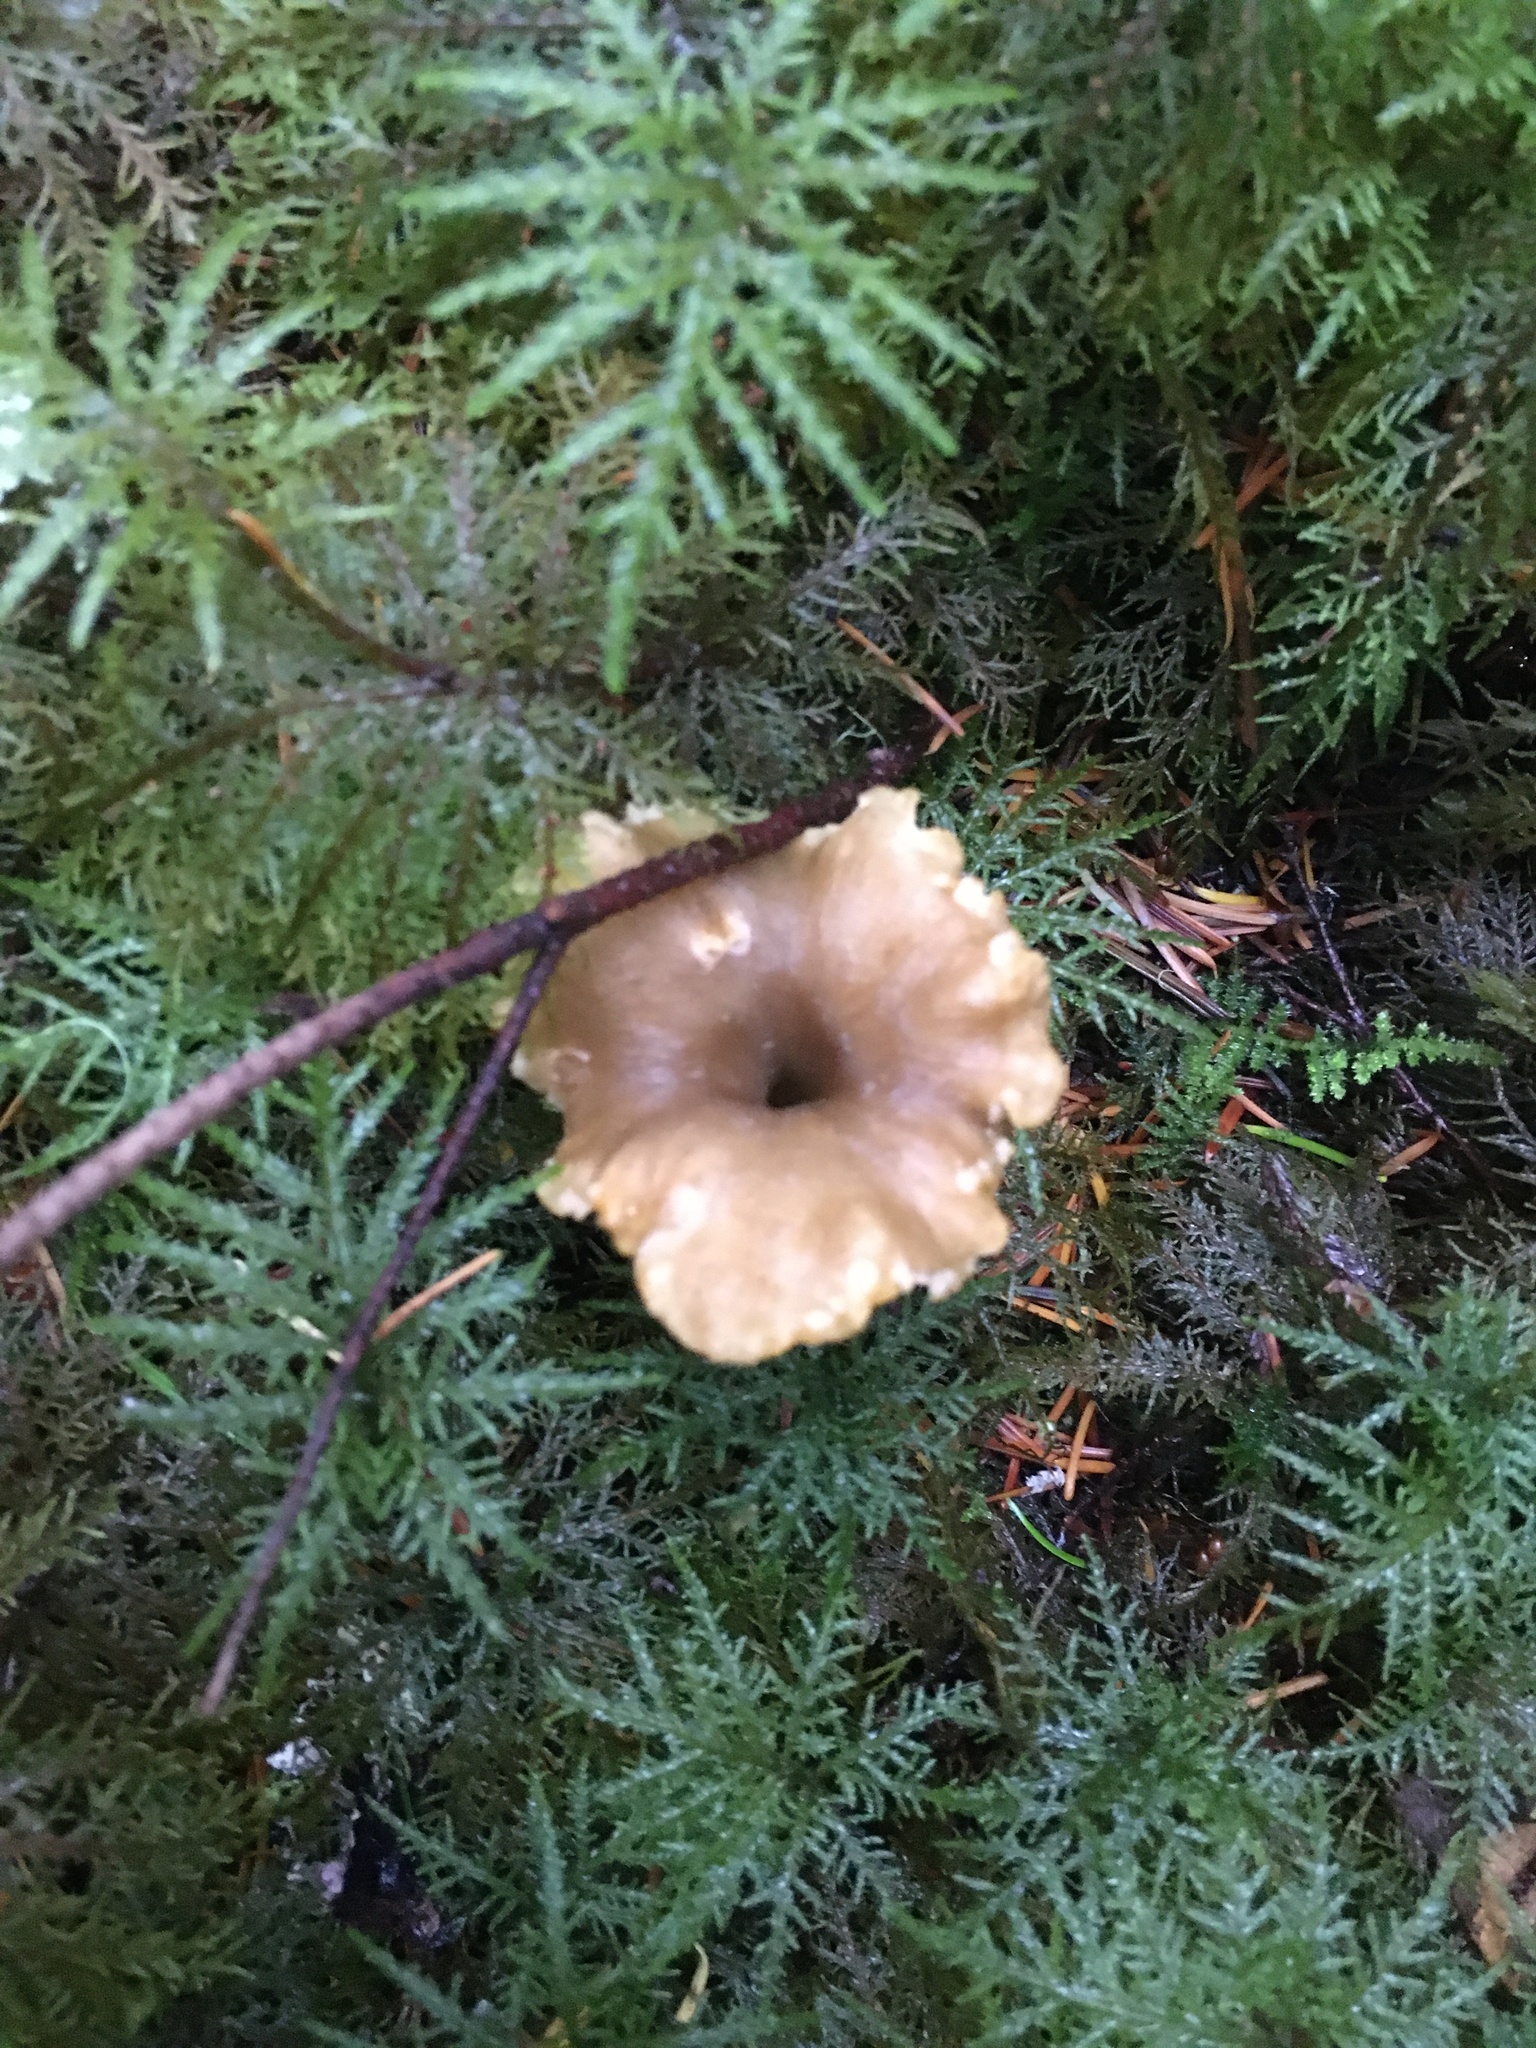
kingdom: Fungi
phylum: Basidiomycota
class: Agaricomycetes
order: Cantharellales
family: Hydnaceae
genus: Craterellus
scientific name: Craterellus tubaeformis
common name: Yellowfoot
